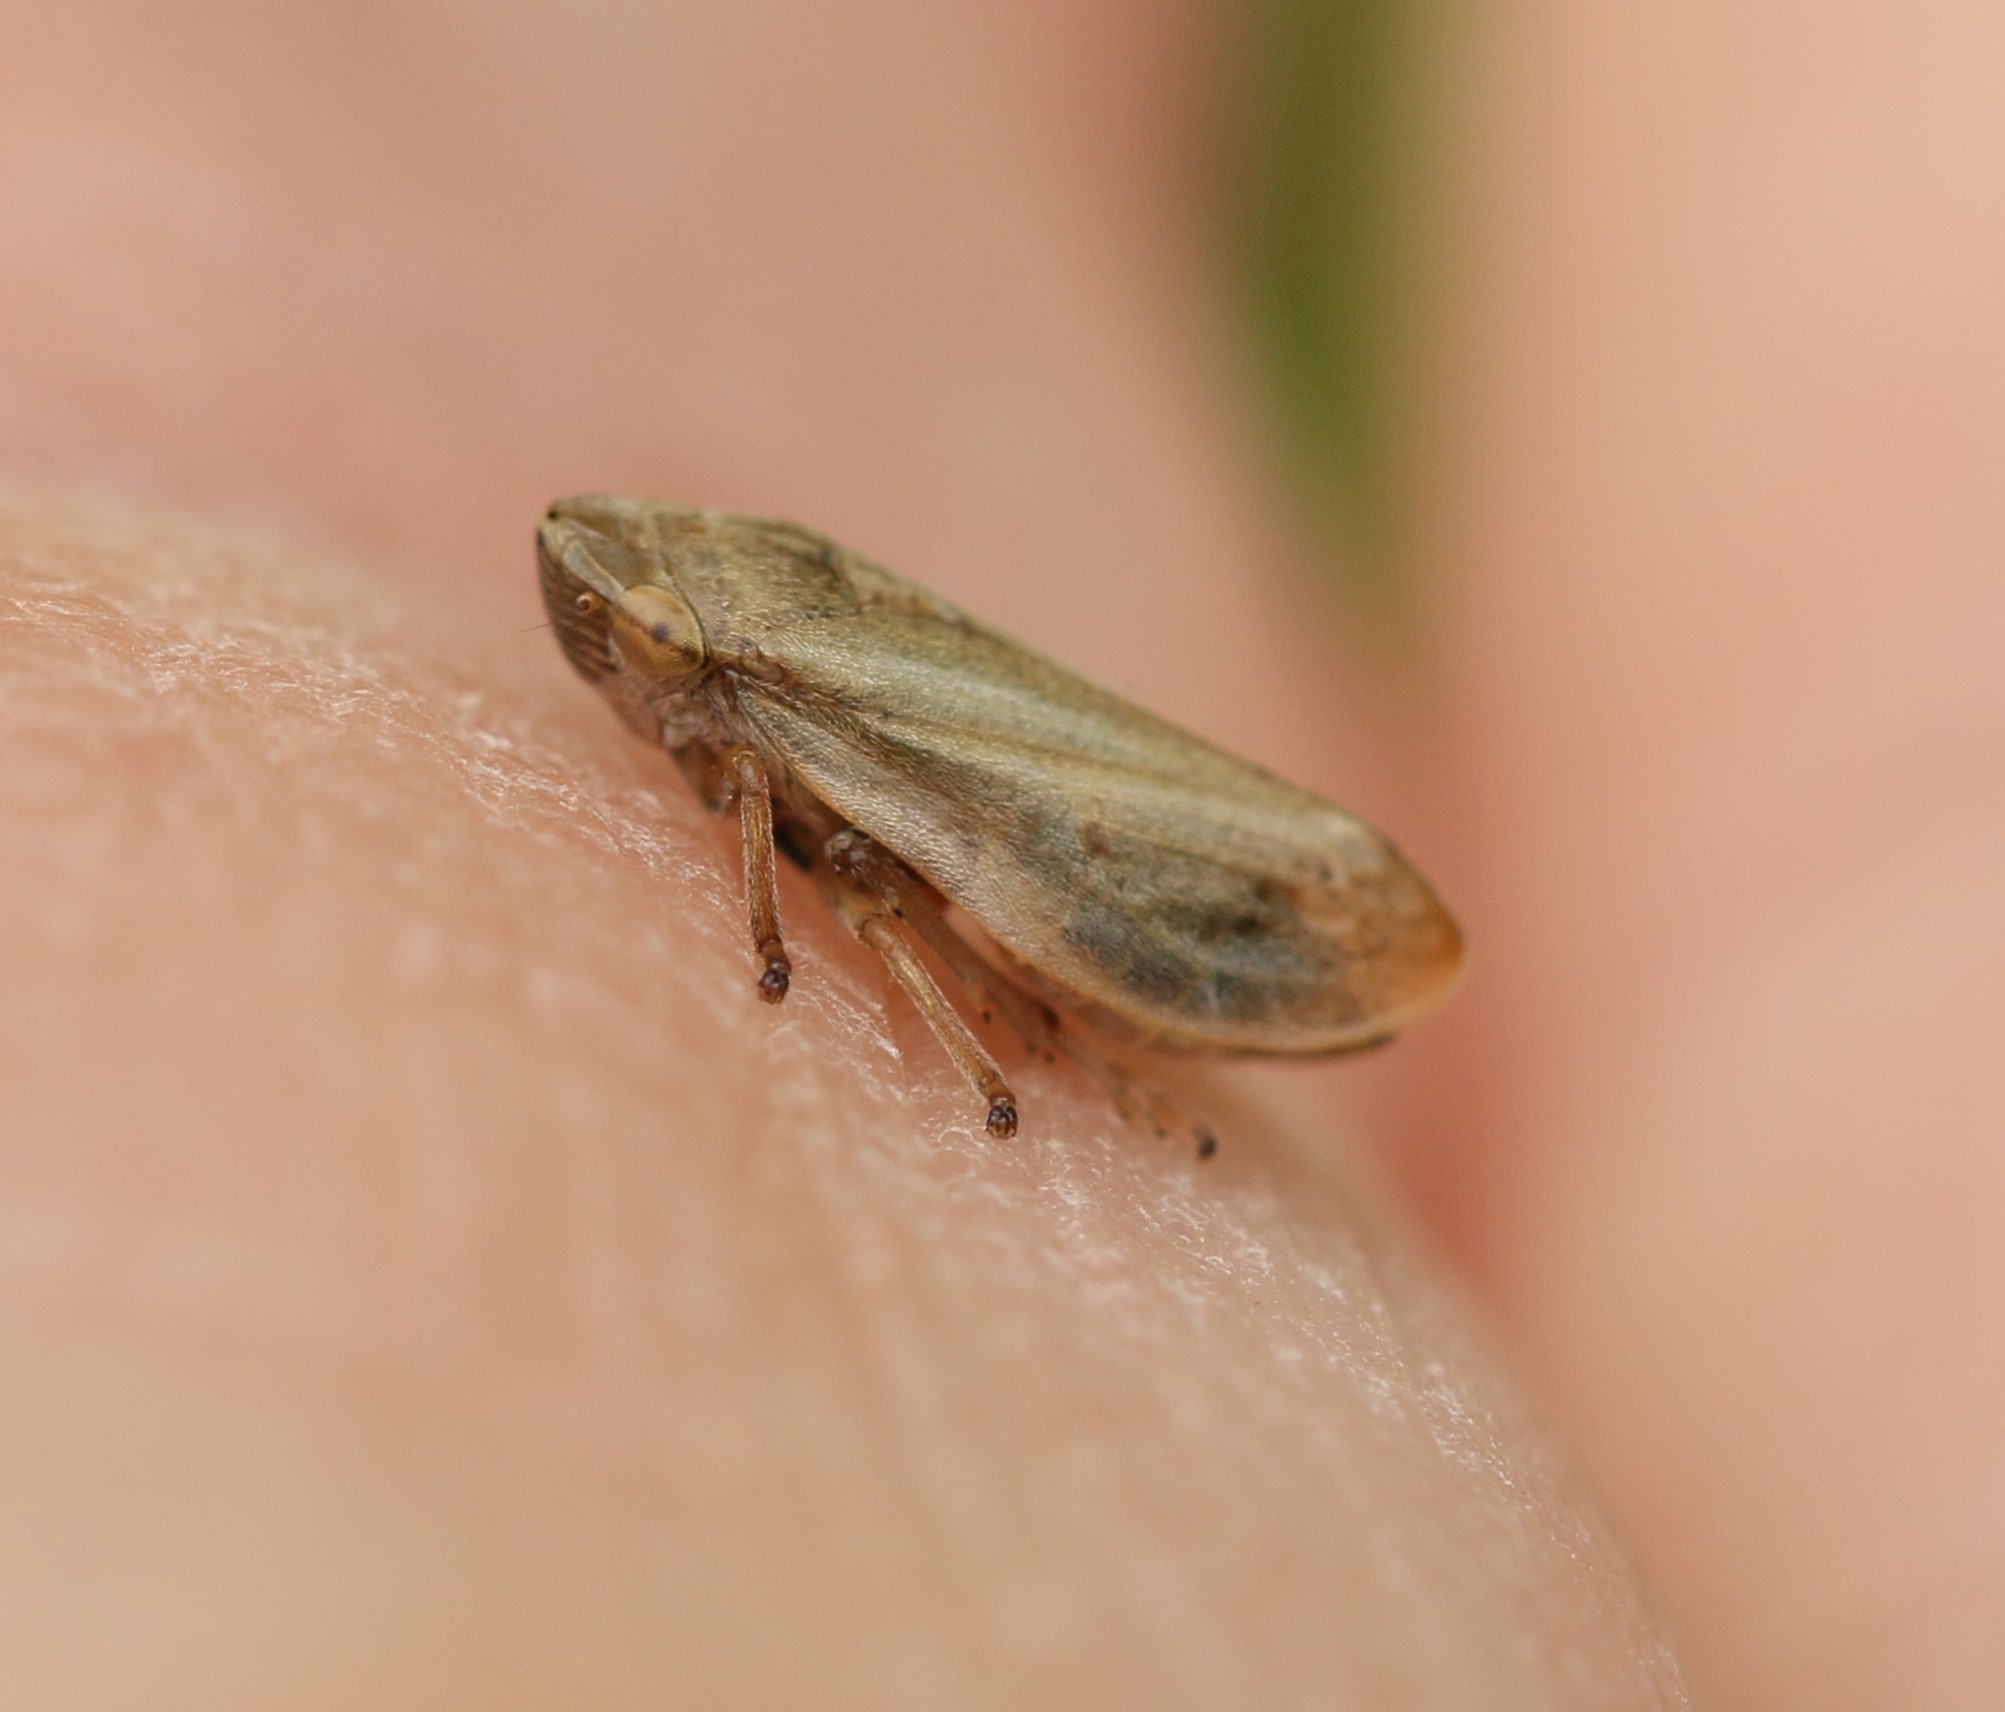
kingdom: Animalia
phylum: Arthropoda
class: Insecta
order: Hemiptera
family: Aphrophoridae
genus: Philaenus
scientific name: Philaenus spumarius
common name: Meadow spittlebug
